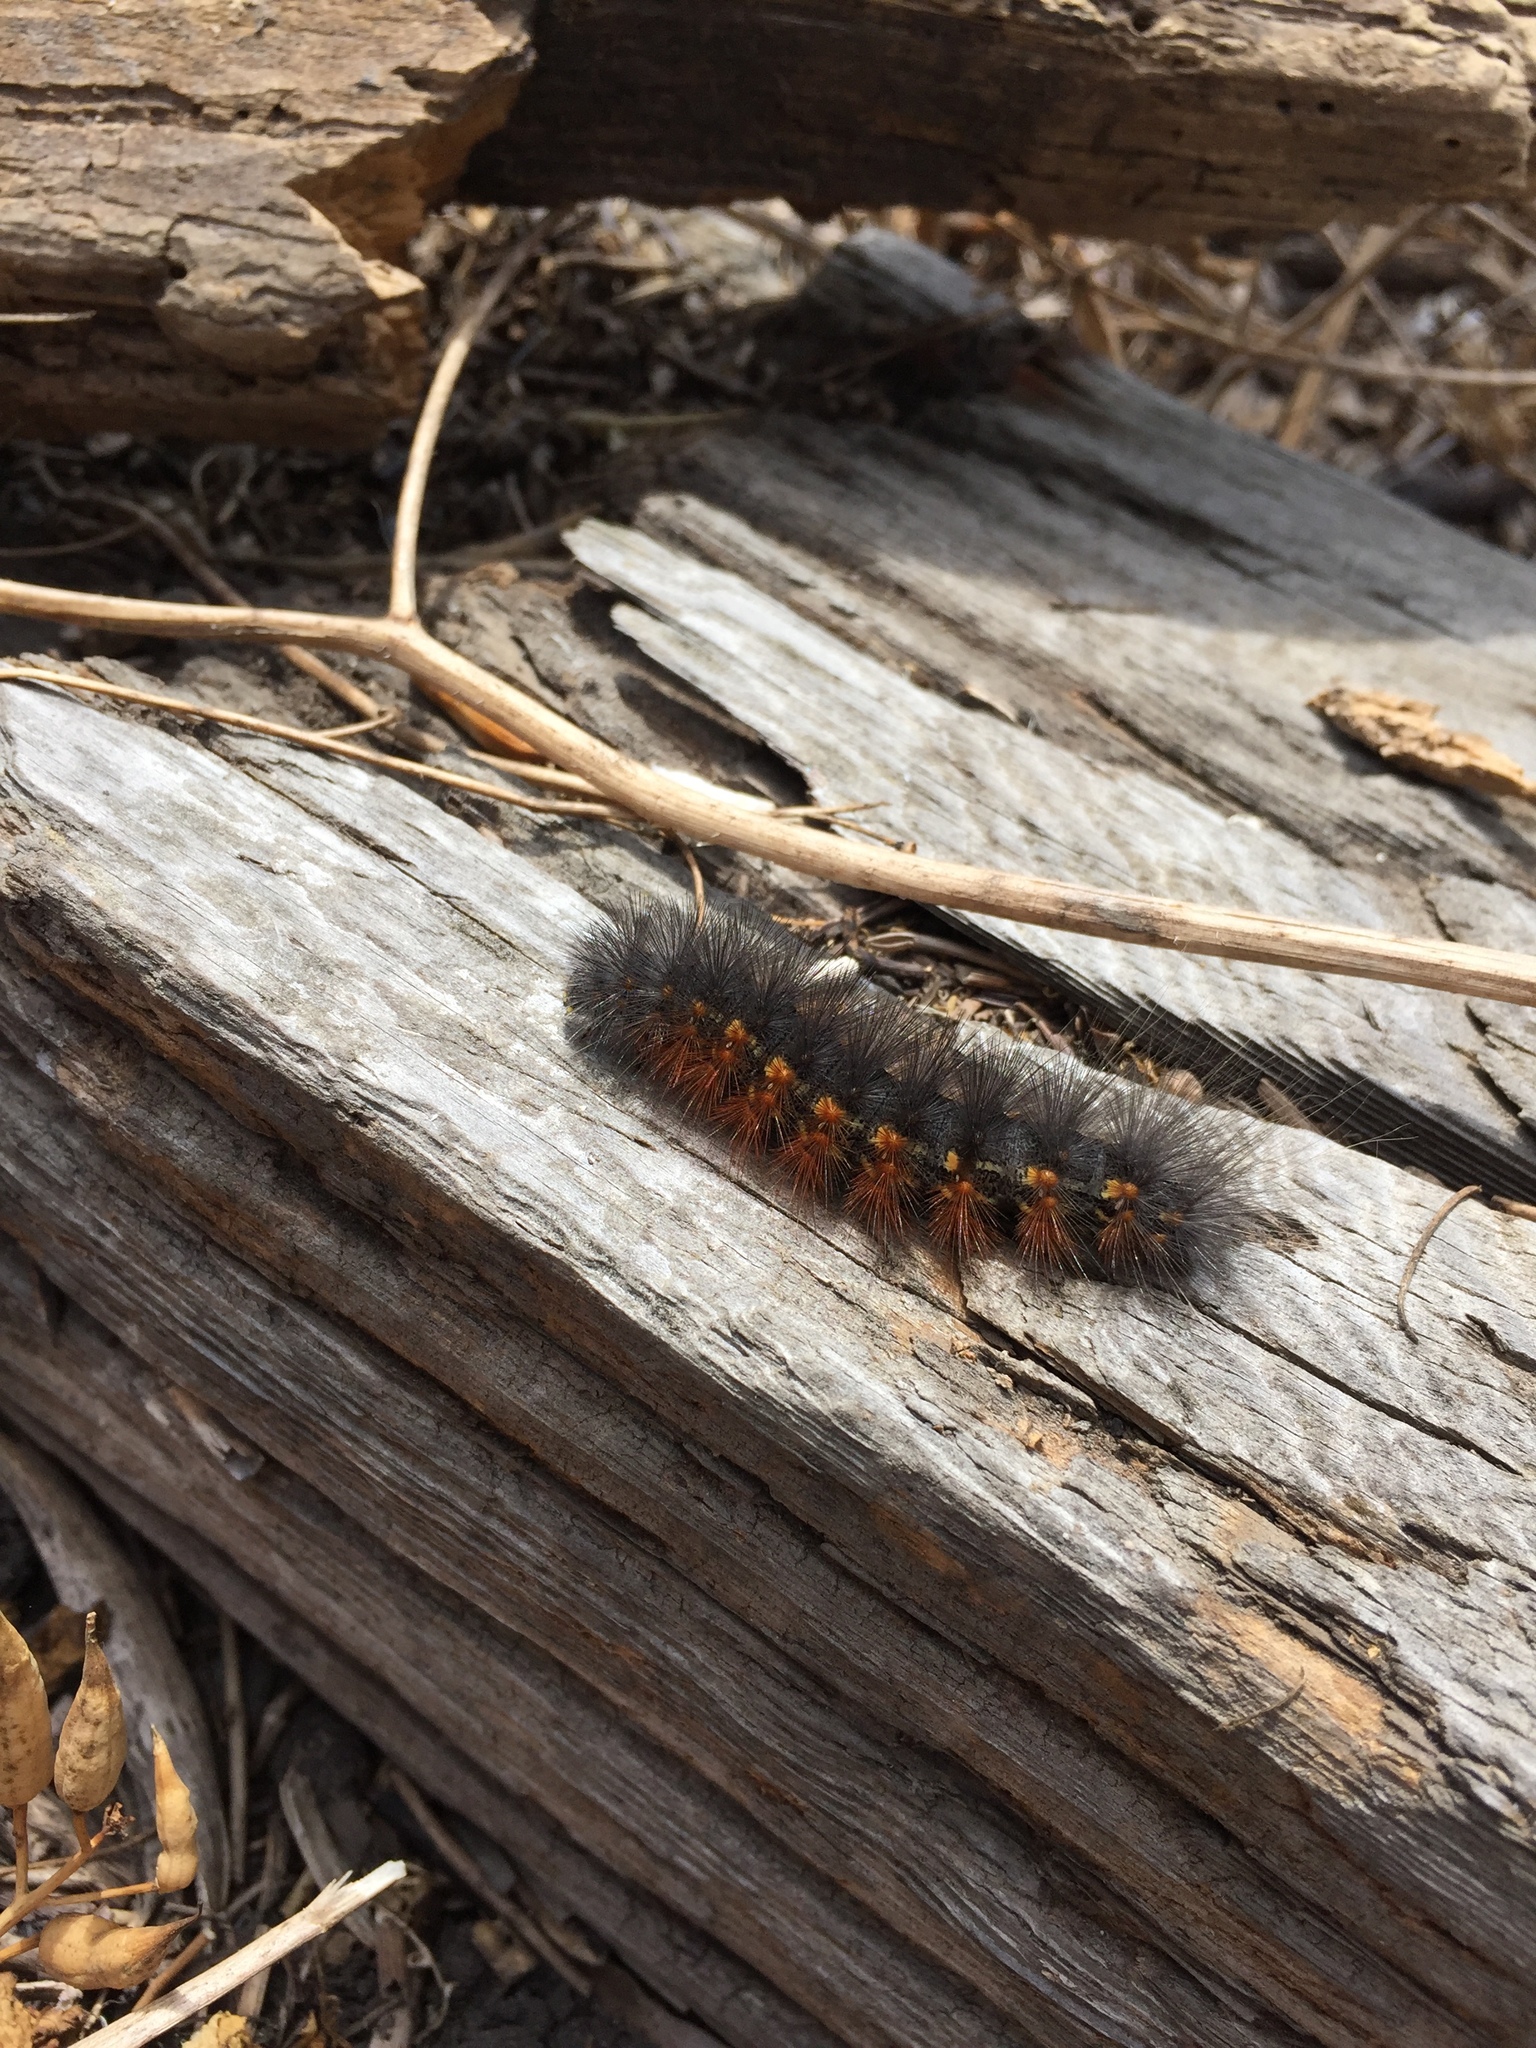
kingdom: Animalia
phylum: Arthropoda
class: Insecta
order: Lepidoptera
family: Erebidae
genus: Estigmene
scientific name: Estigmene acrea
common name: Salt marsh moth
